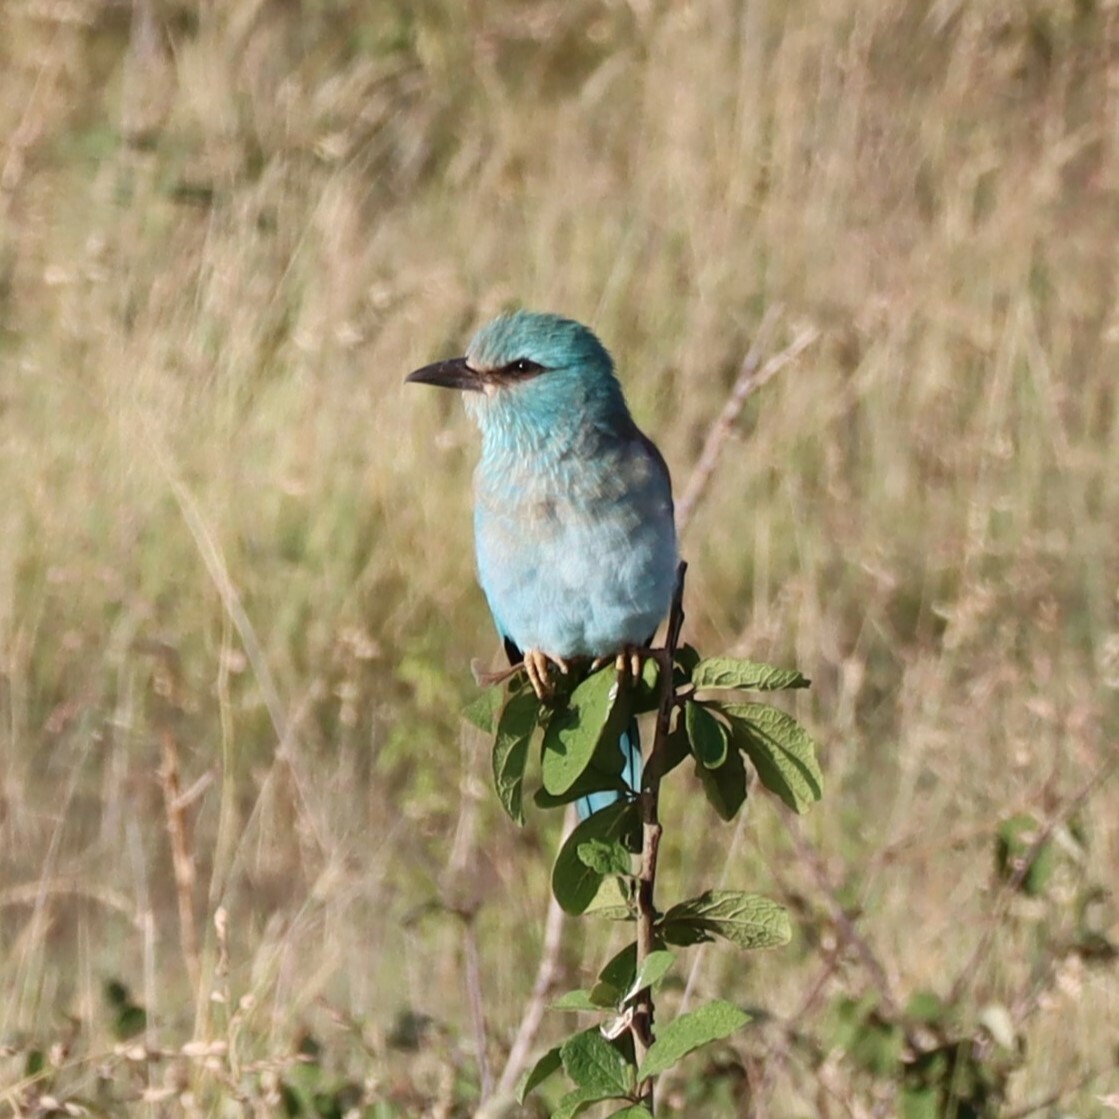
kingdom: Animalia
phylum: Chordata
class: Aves
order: Coraciiformes
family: Coraciidae
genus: Coracias
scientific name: Coracias garrulus
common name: European roller
